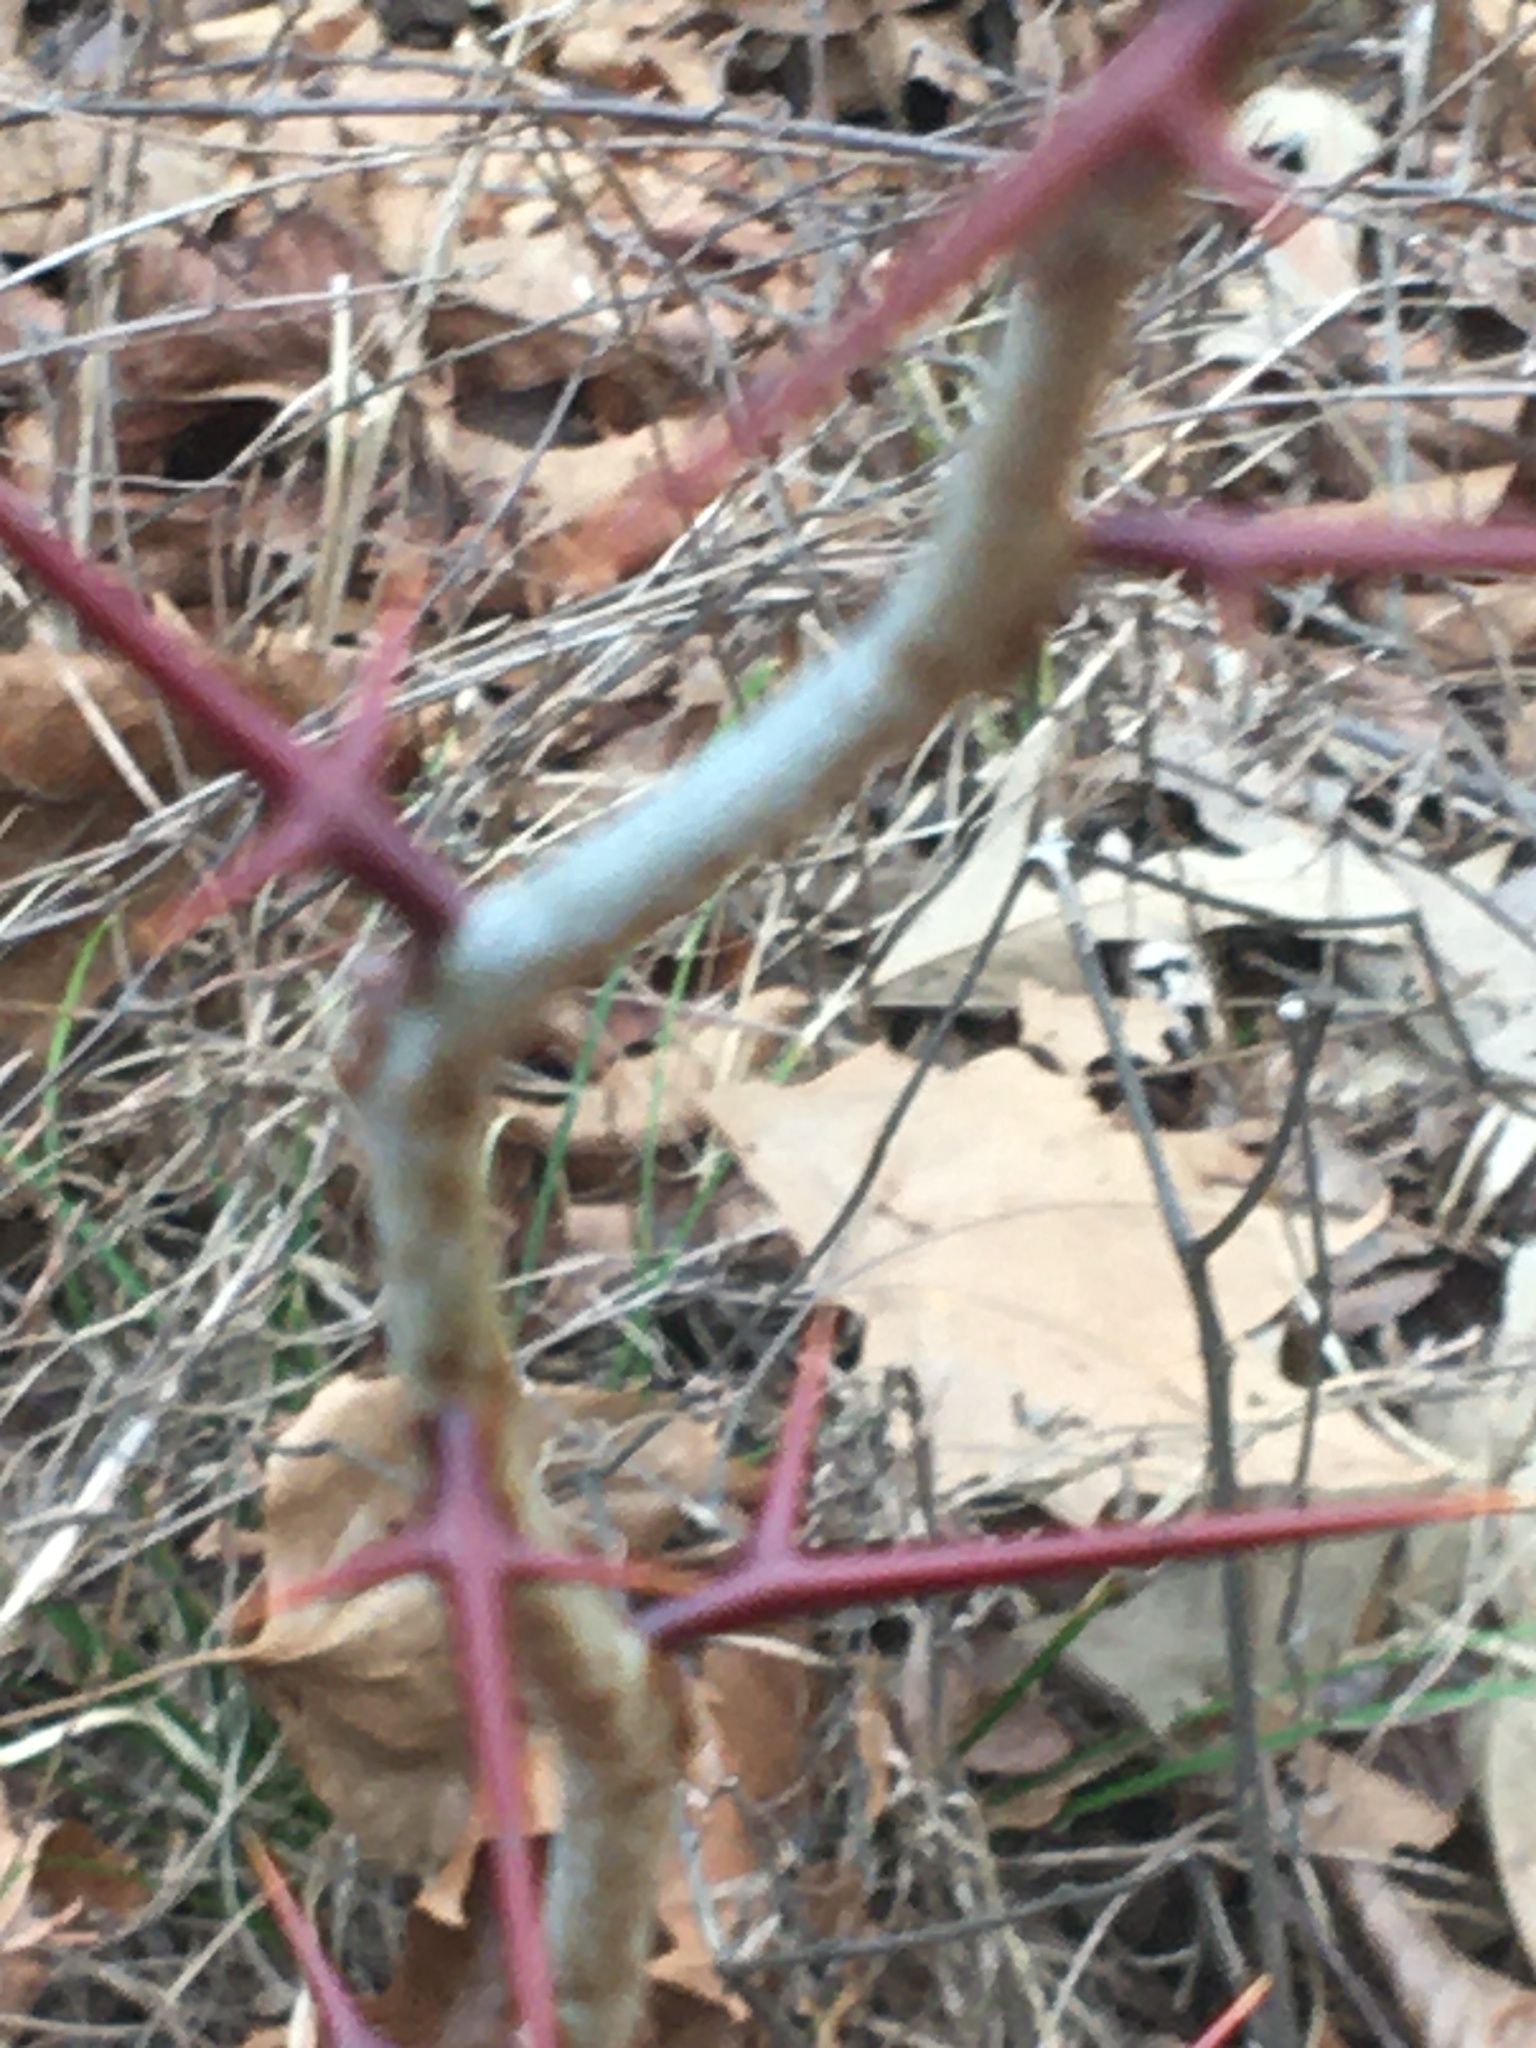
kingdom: Plantae
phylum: Tracheophyta
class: Magnoliopsida
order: Fabales
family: Fabaceae
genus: Gleditsia
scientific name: Gleditsia triacanthos
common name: Common honeylocust
